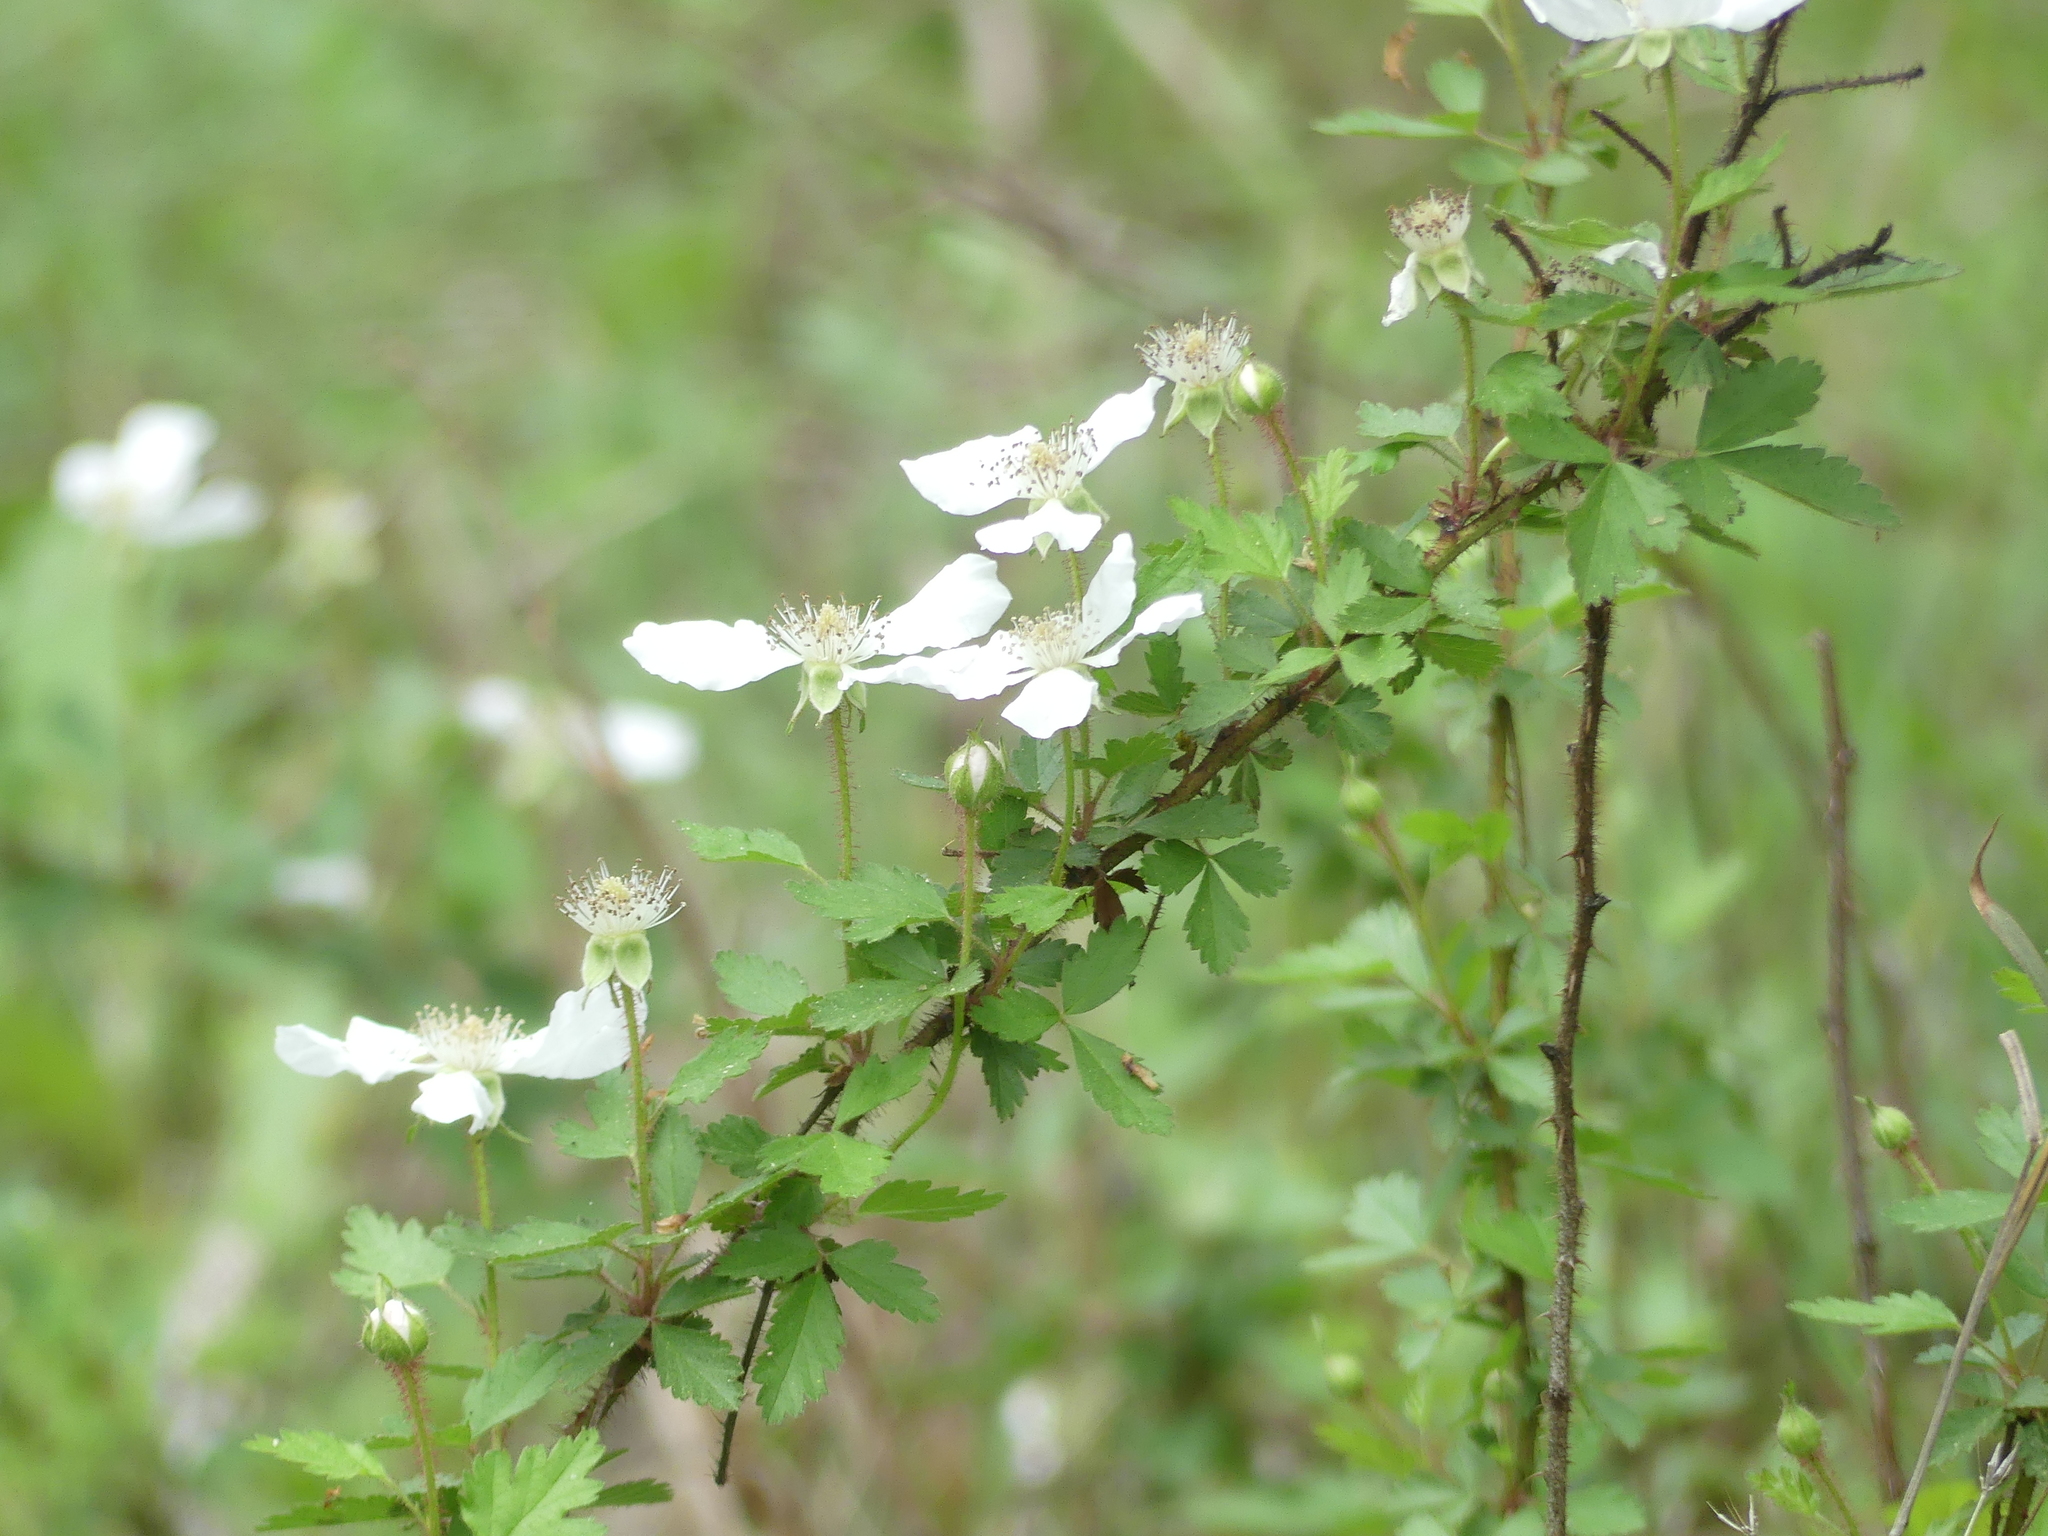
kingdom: Plantae
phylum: Tracheophyta
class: Magnoliopsida
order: Rosales
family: Rosaceae
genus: Rubus
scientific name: Rubus trivialis
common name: Southern dewberry
